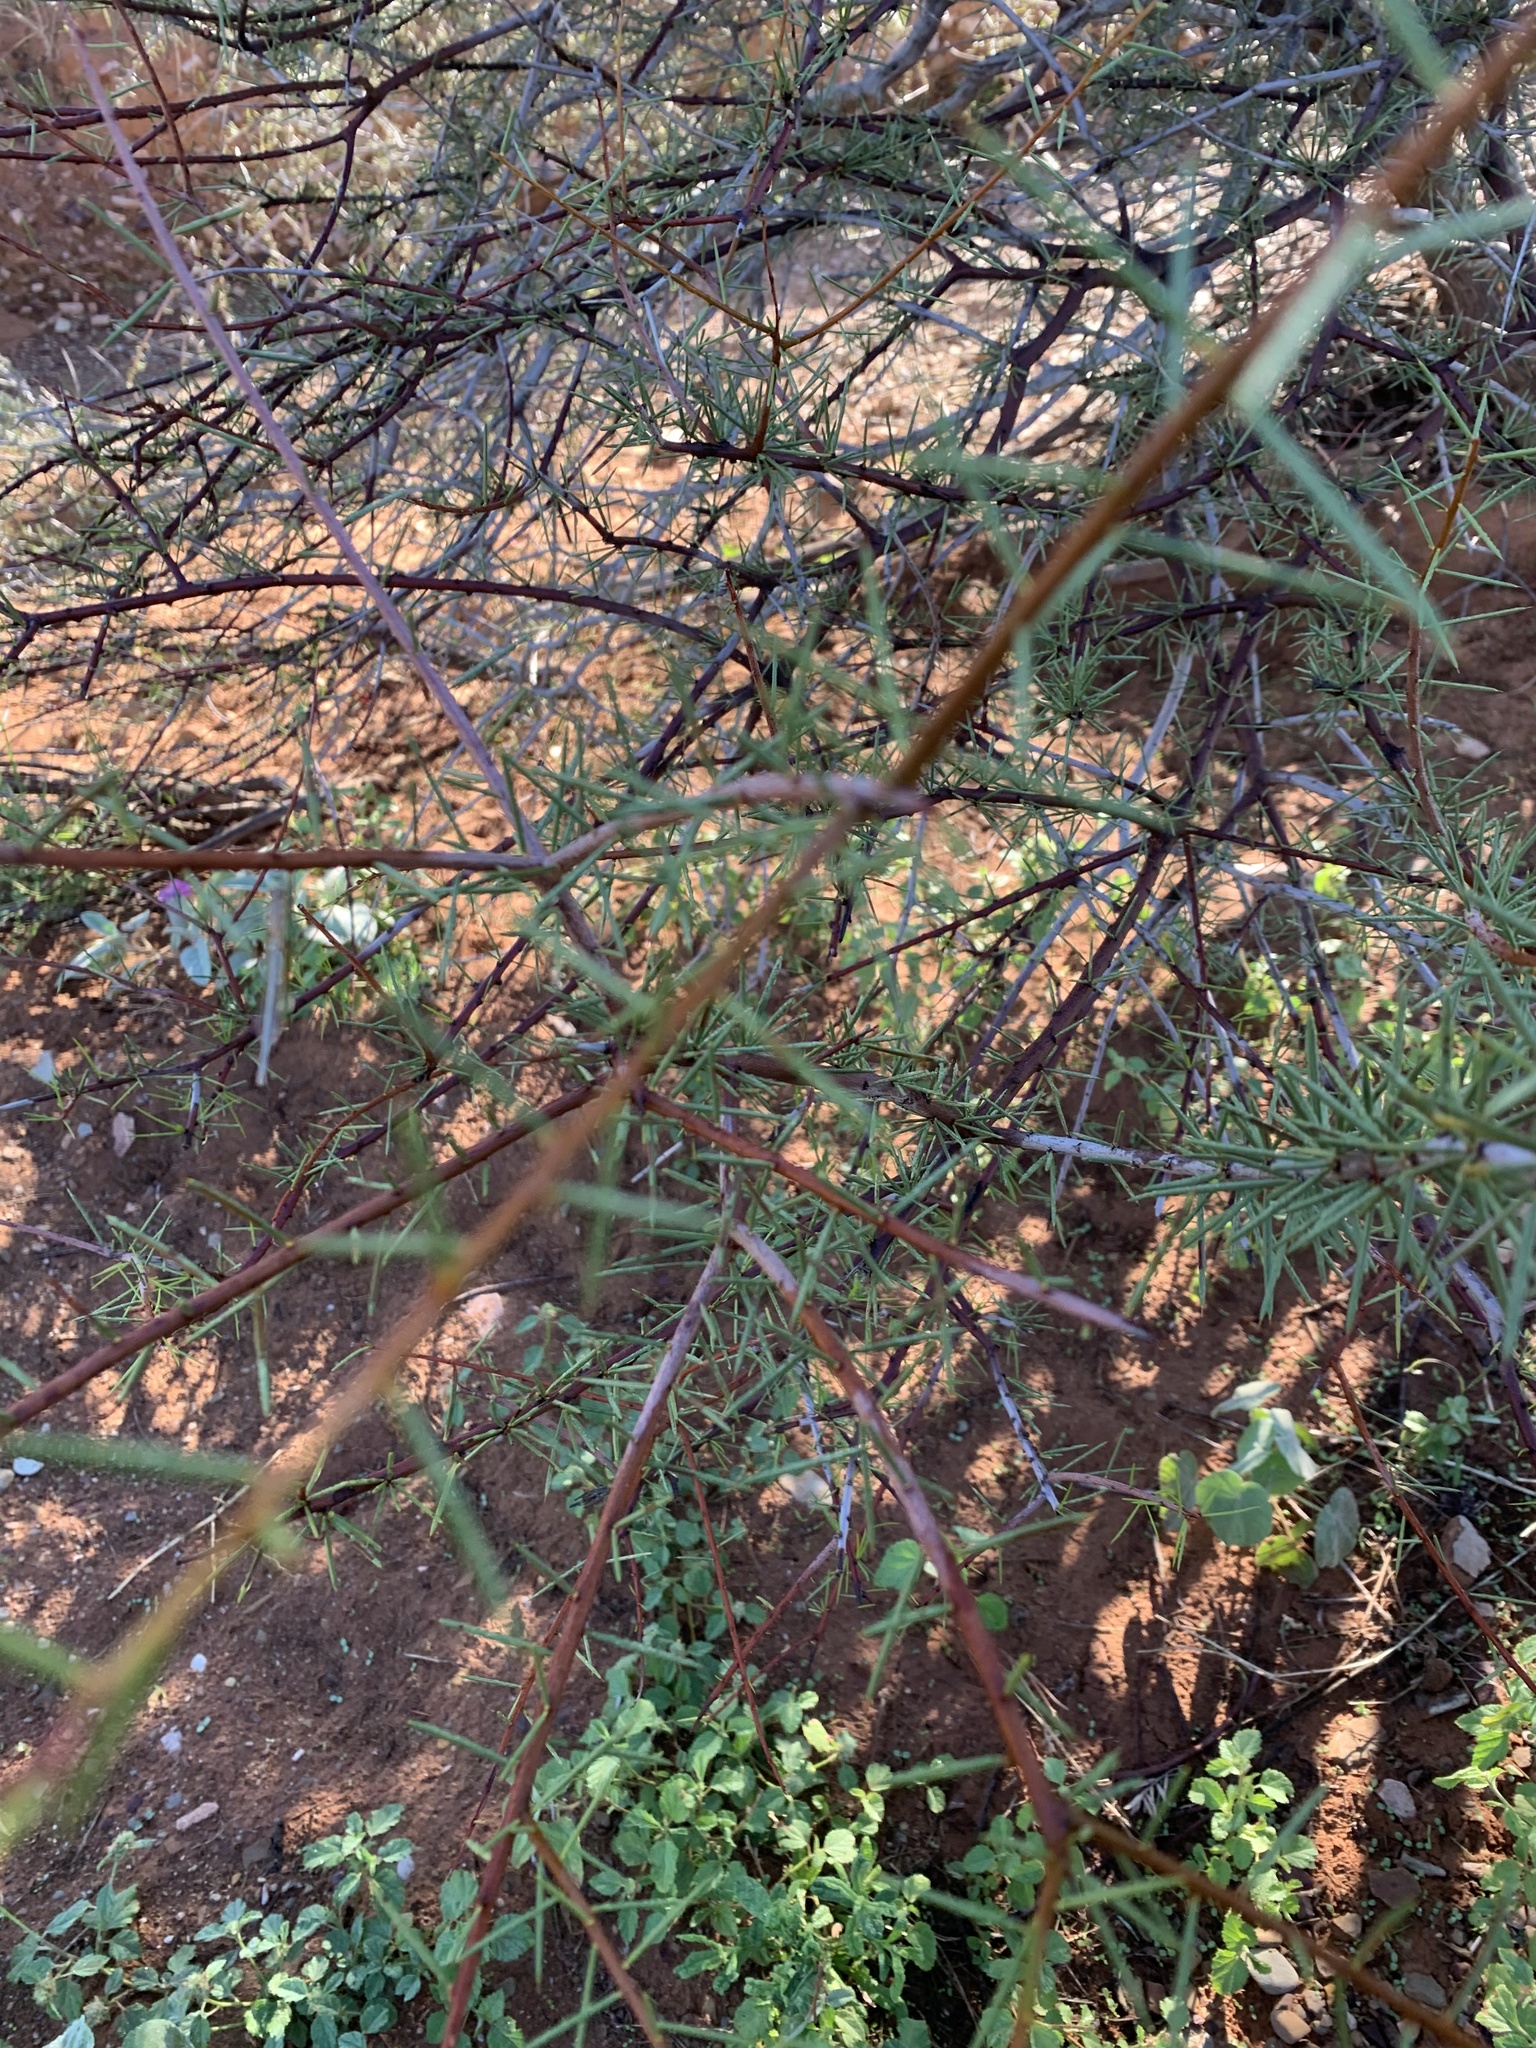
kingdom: Plantae
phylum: Tracheophyta
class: Magnoliopsida
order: Fabales
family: Fabaceae
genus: Acacia
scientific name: Acacia tetragonophylla
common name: Dead finish
